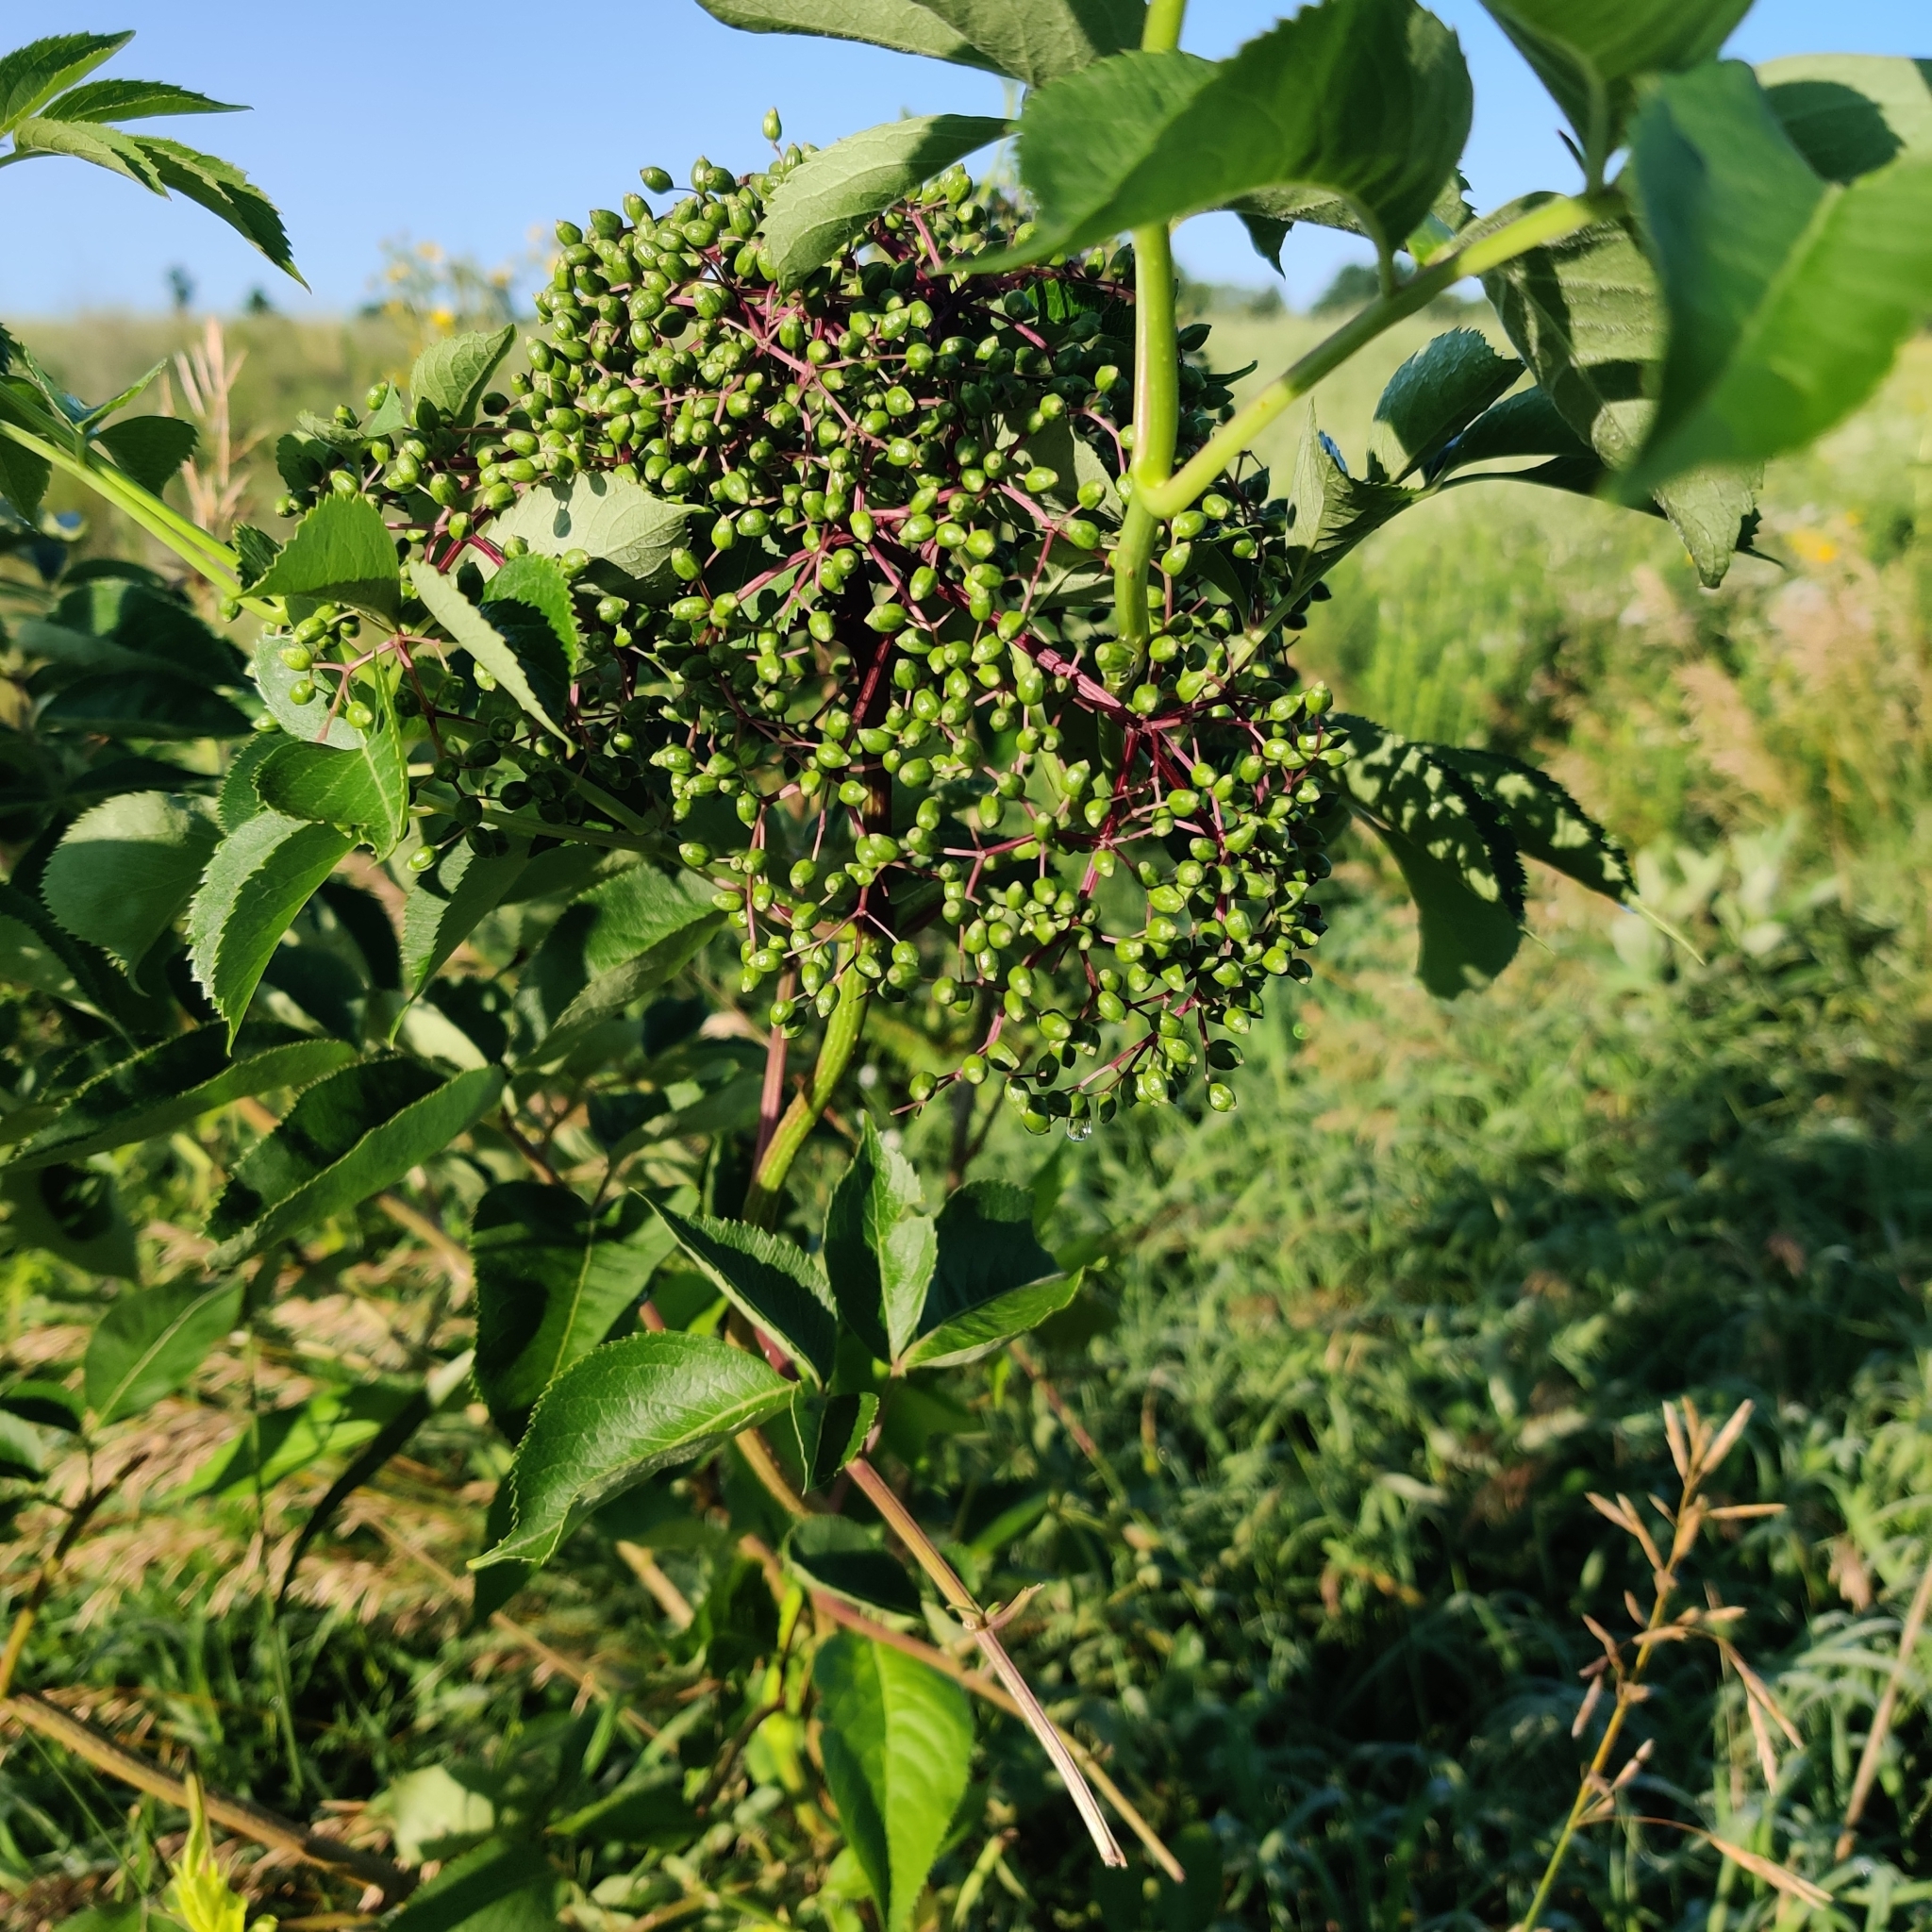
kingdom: Plantae
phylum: Tracheophyta
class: Magnoliopsida
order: Dipsacales
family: Viburnaceae
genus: Sambucus
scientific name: Sambucus canadensis
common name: American elder
